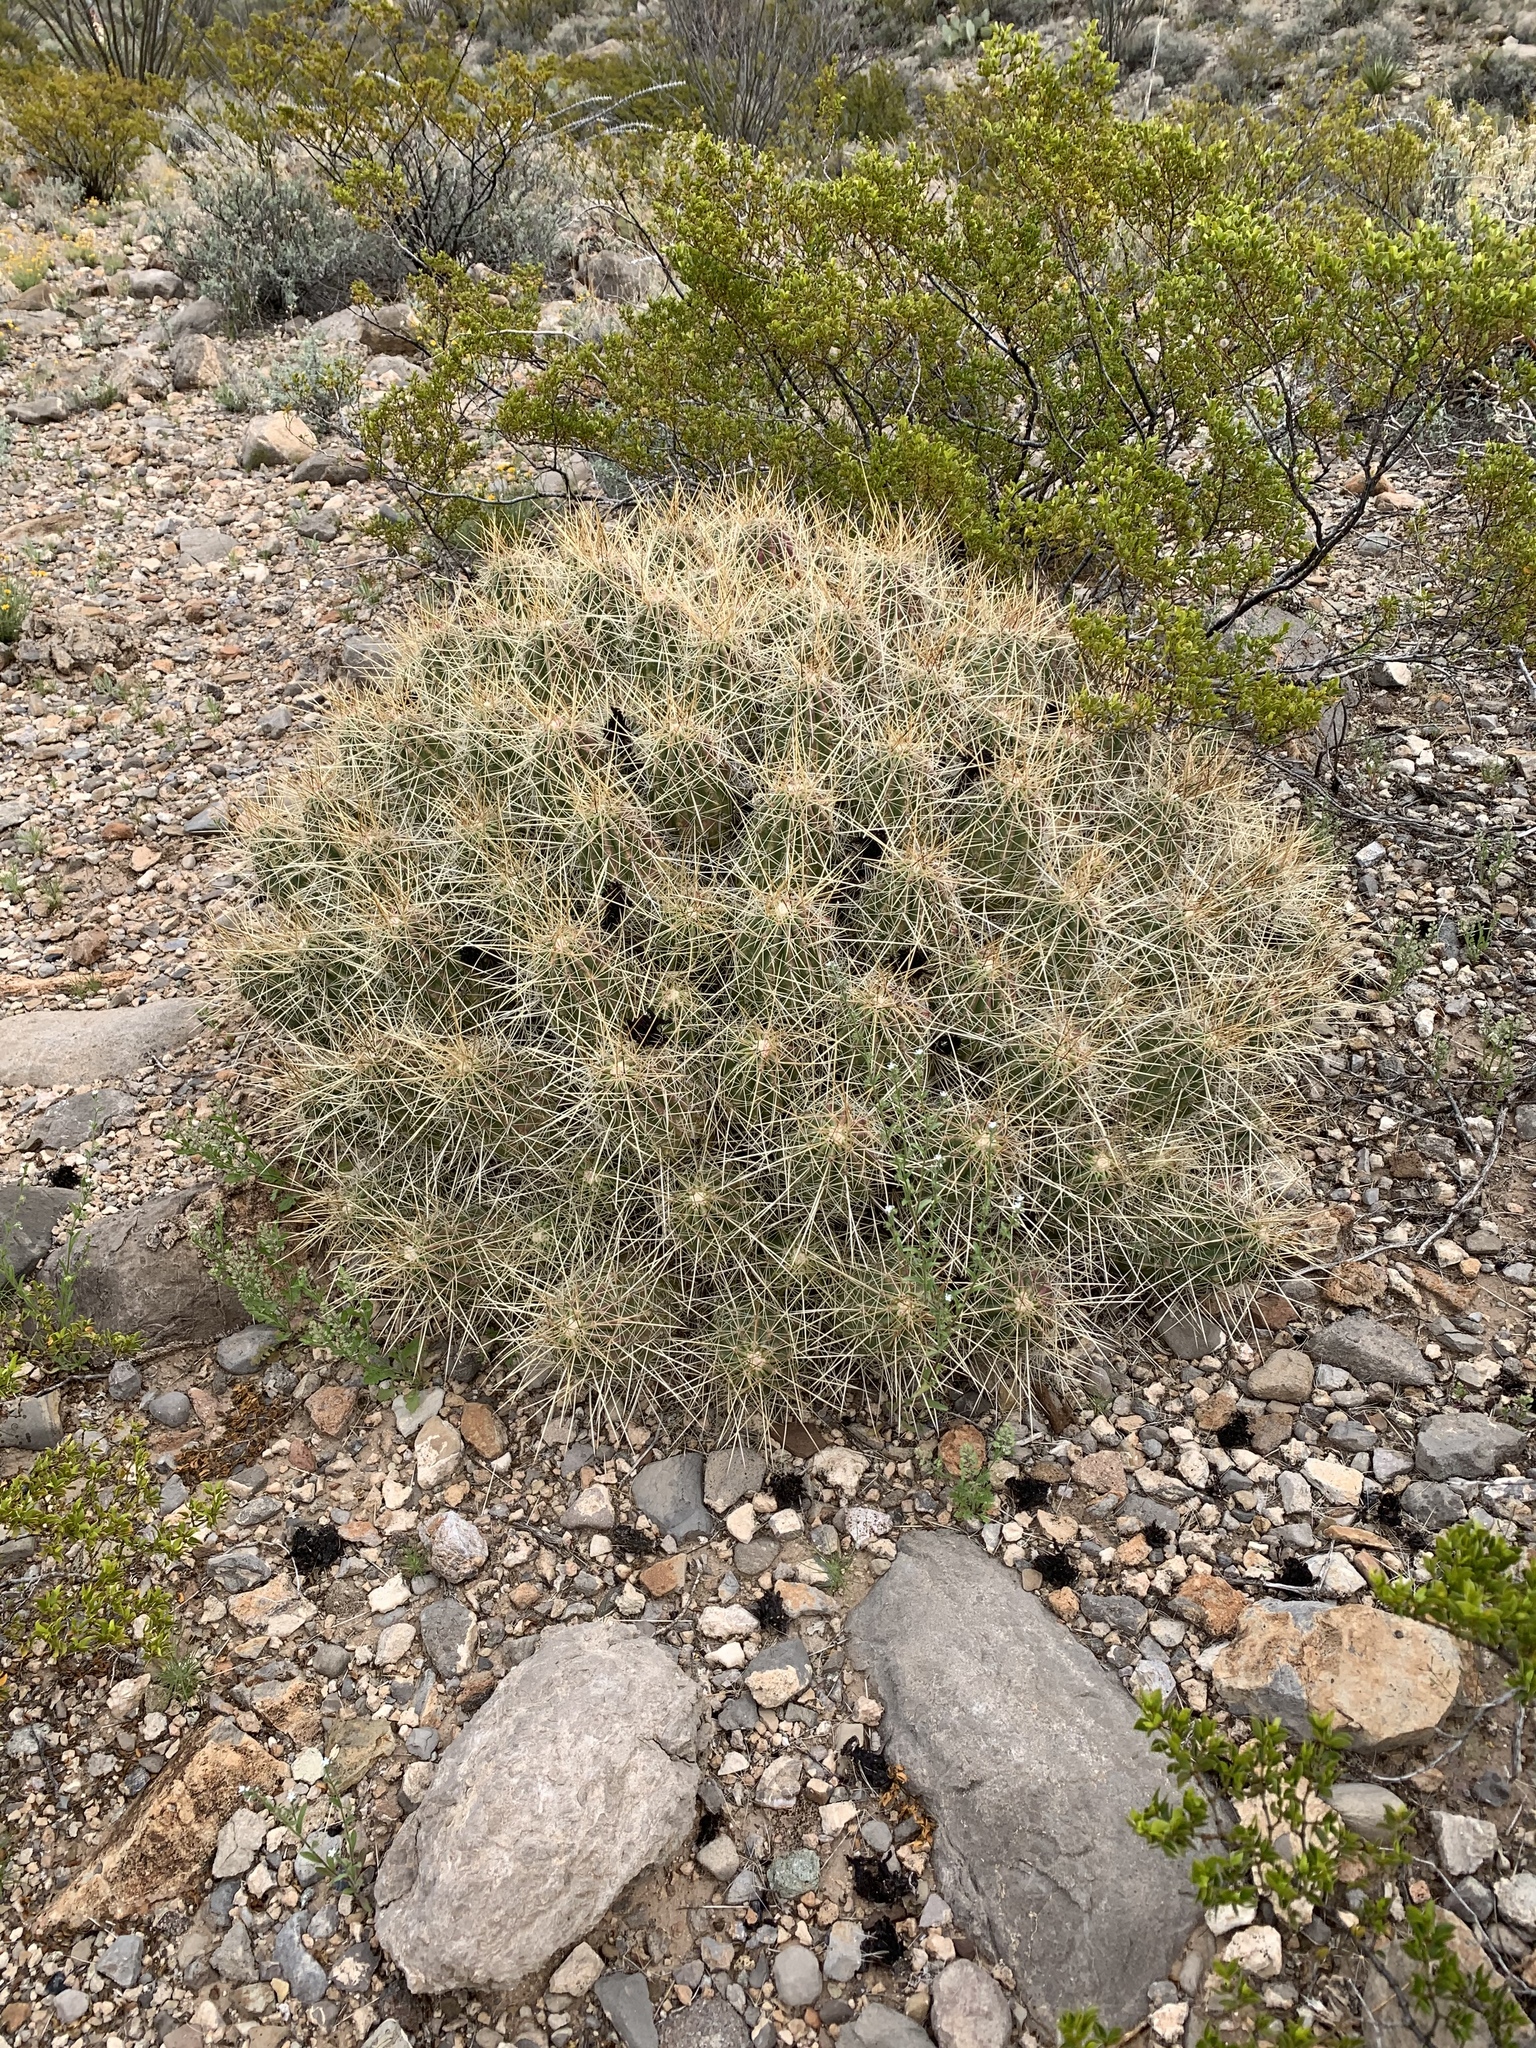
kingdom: Plantae
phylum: Tracheophyta
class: Magnoliopsida
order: Caryophyllales
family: Cactaceae
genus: Echinocereus
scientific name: Echinocereus stramineus
